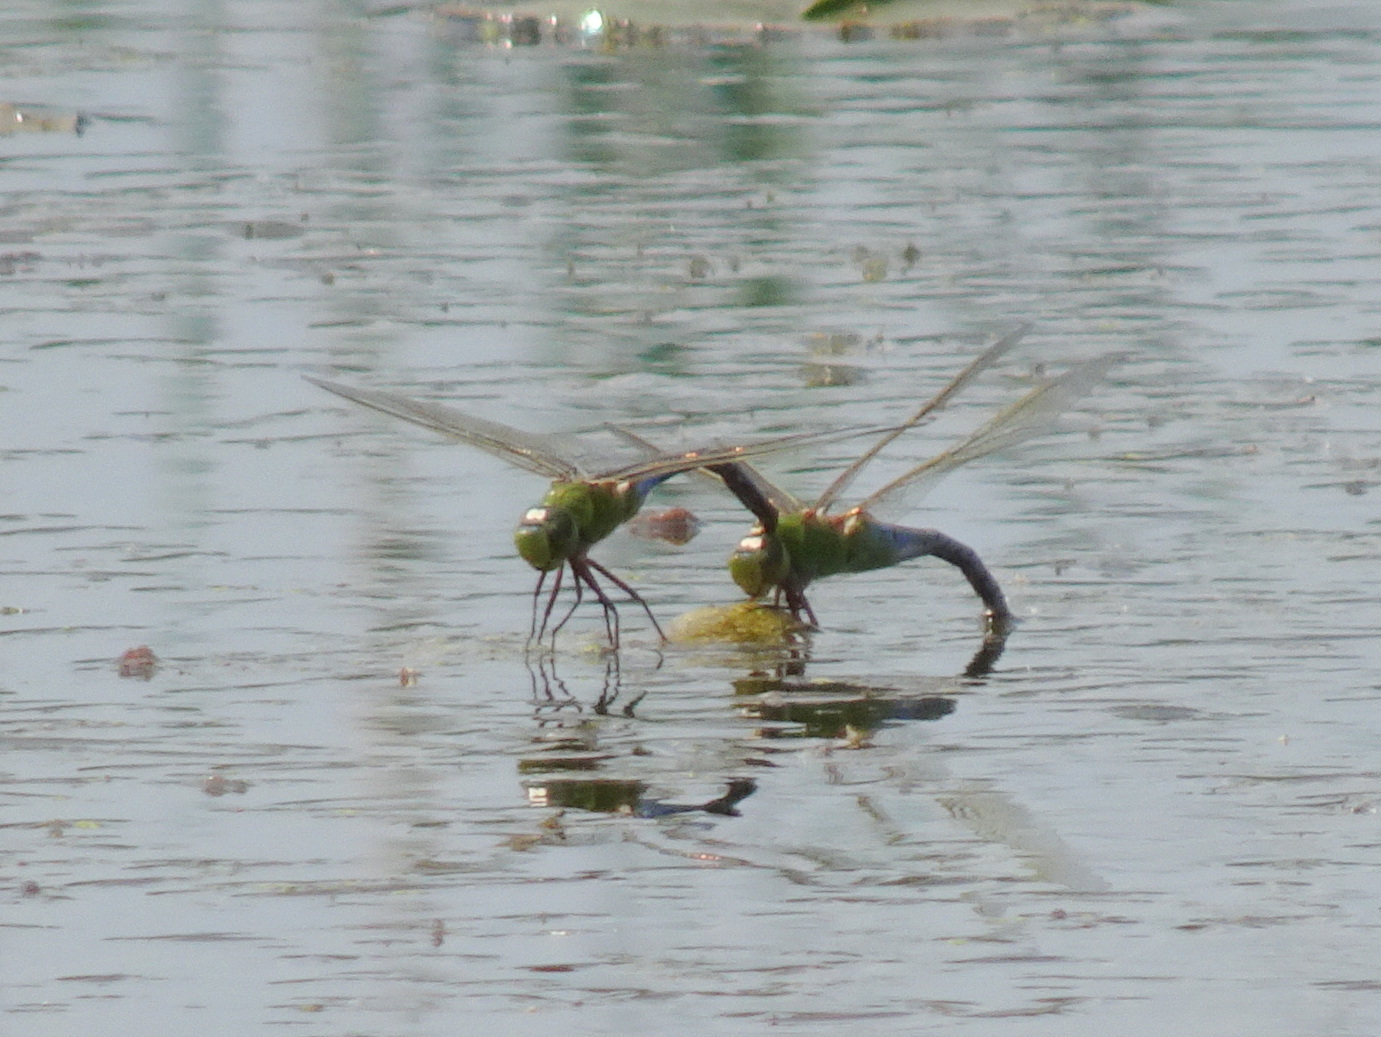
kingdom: Animalia
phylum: Arthropoda
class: Insecta
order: Odonata
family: Aeshnidae
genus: Anax
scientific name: Anax junius
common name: Common green darner
